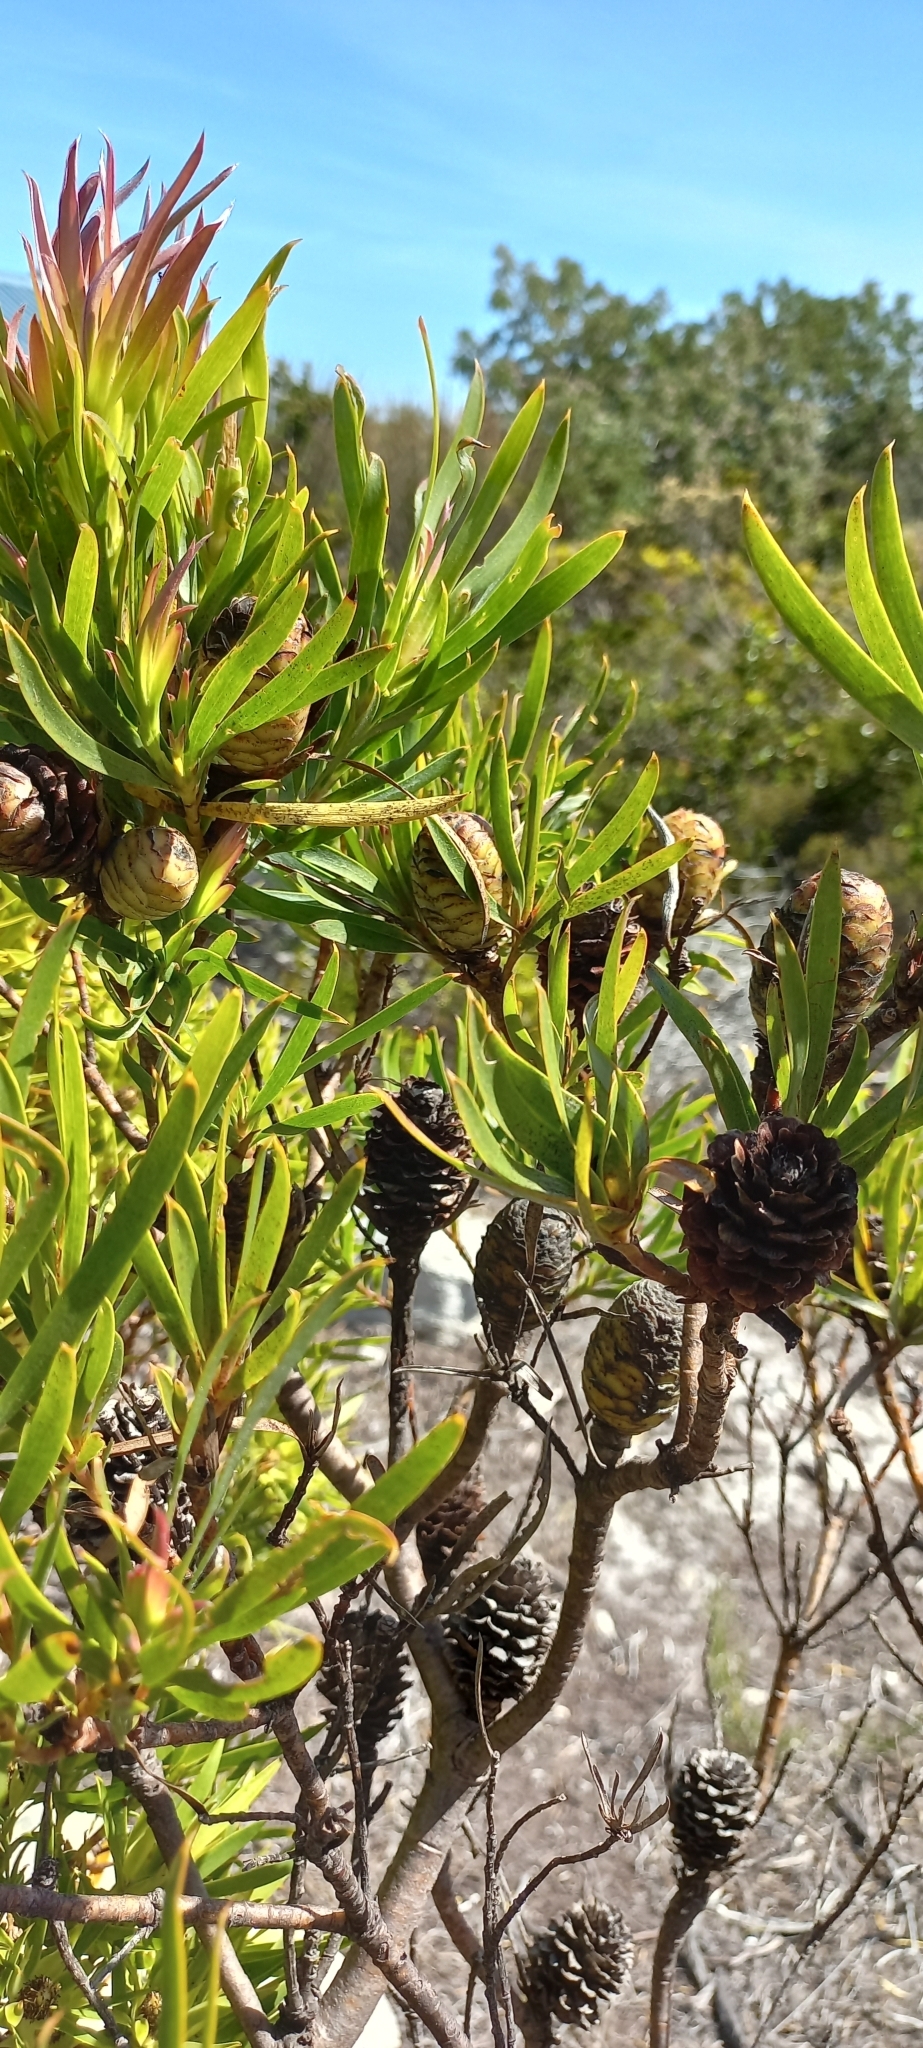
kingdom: Plantae
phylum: Tracheophyta
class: Magnoliopsida
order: Proteales
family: Proteaceae
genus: Leucadendron
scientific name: Leucadendron xanthoconus
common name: Sickle-leaf conebush
